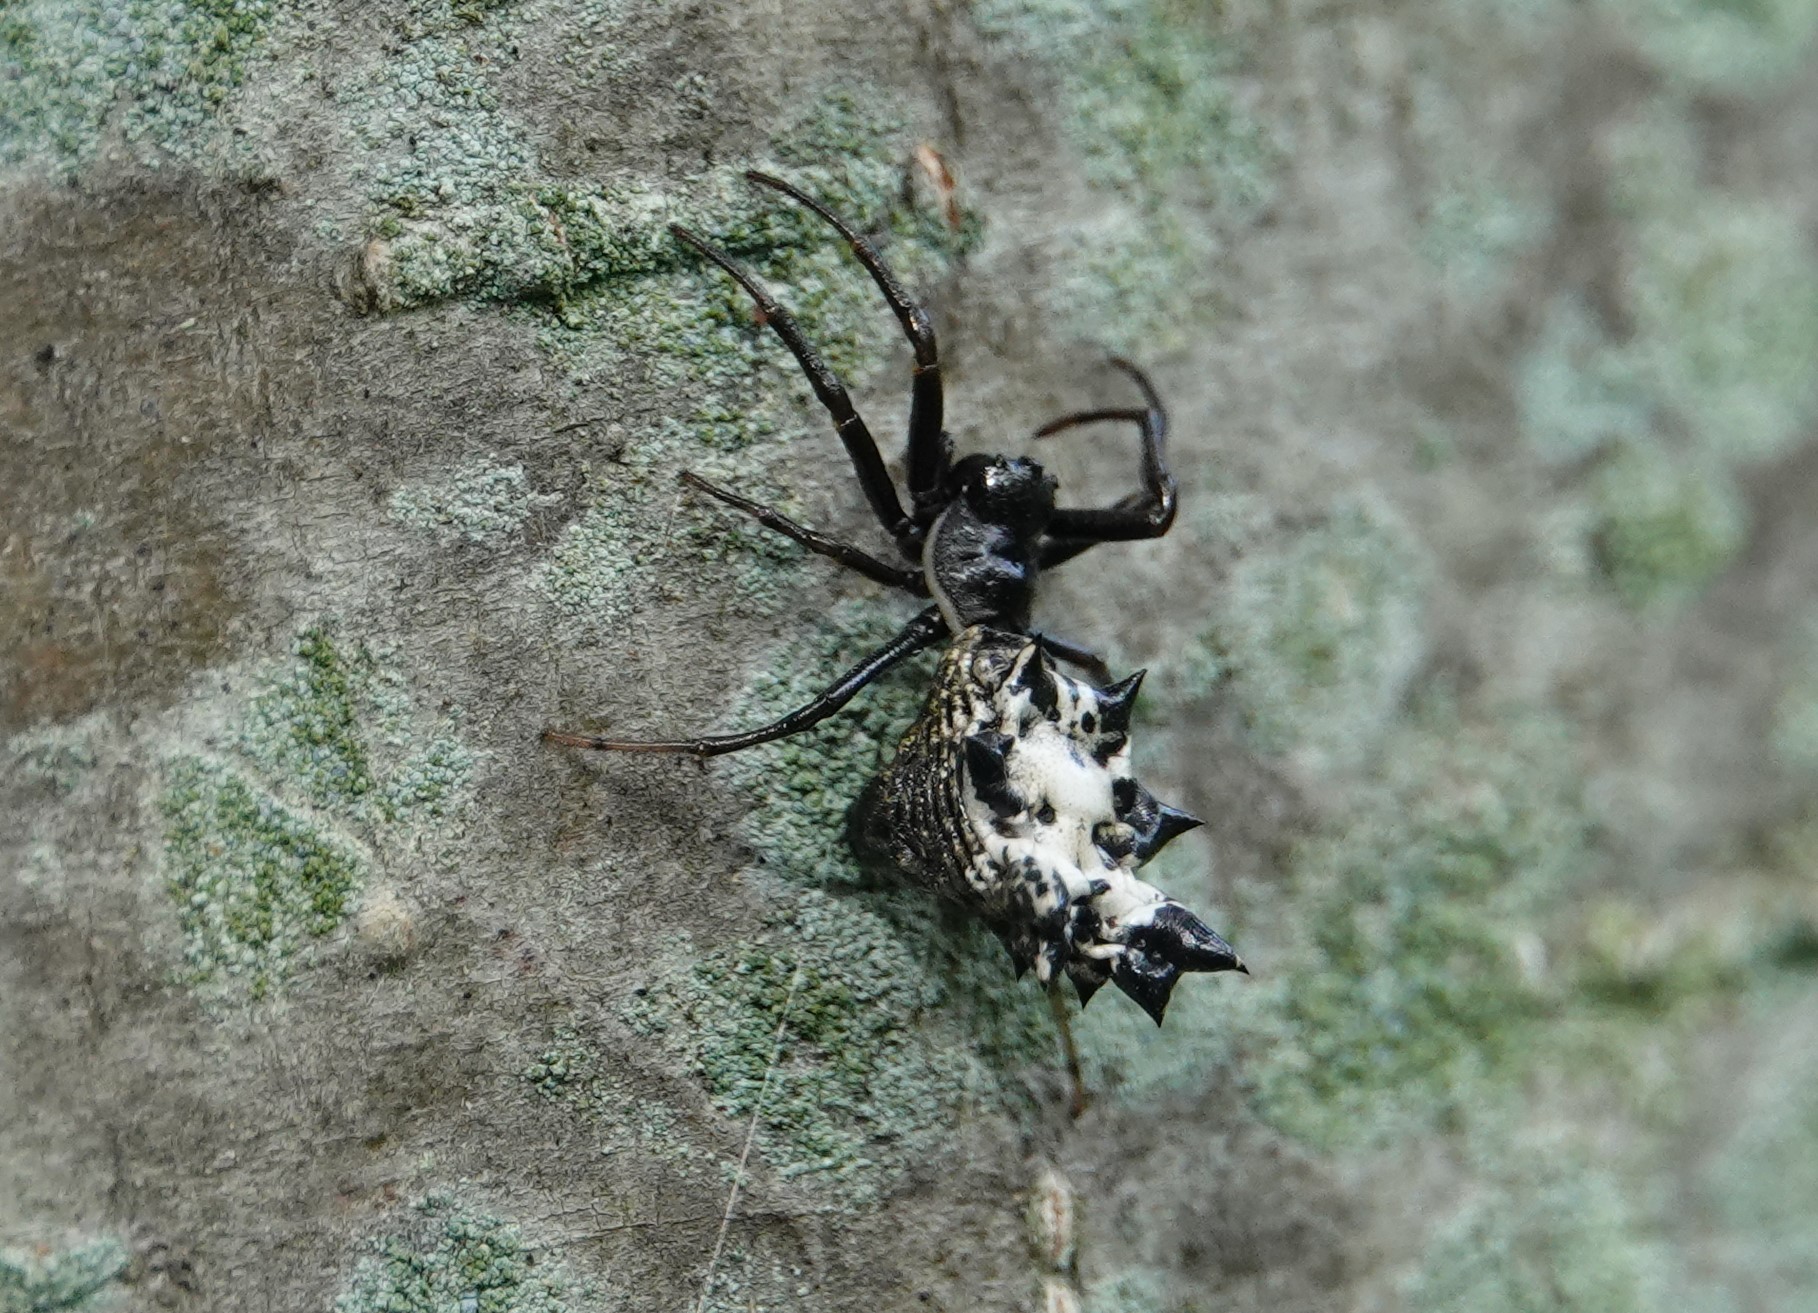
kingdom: Animalia
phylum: Arthropoda
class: Arachnida
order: Araneae
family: Araneidae
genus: Micrathena
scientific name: Micrathena gracilis
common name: Orb weavers
